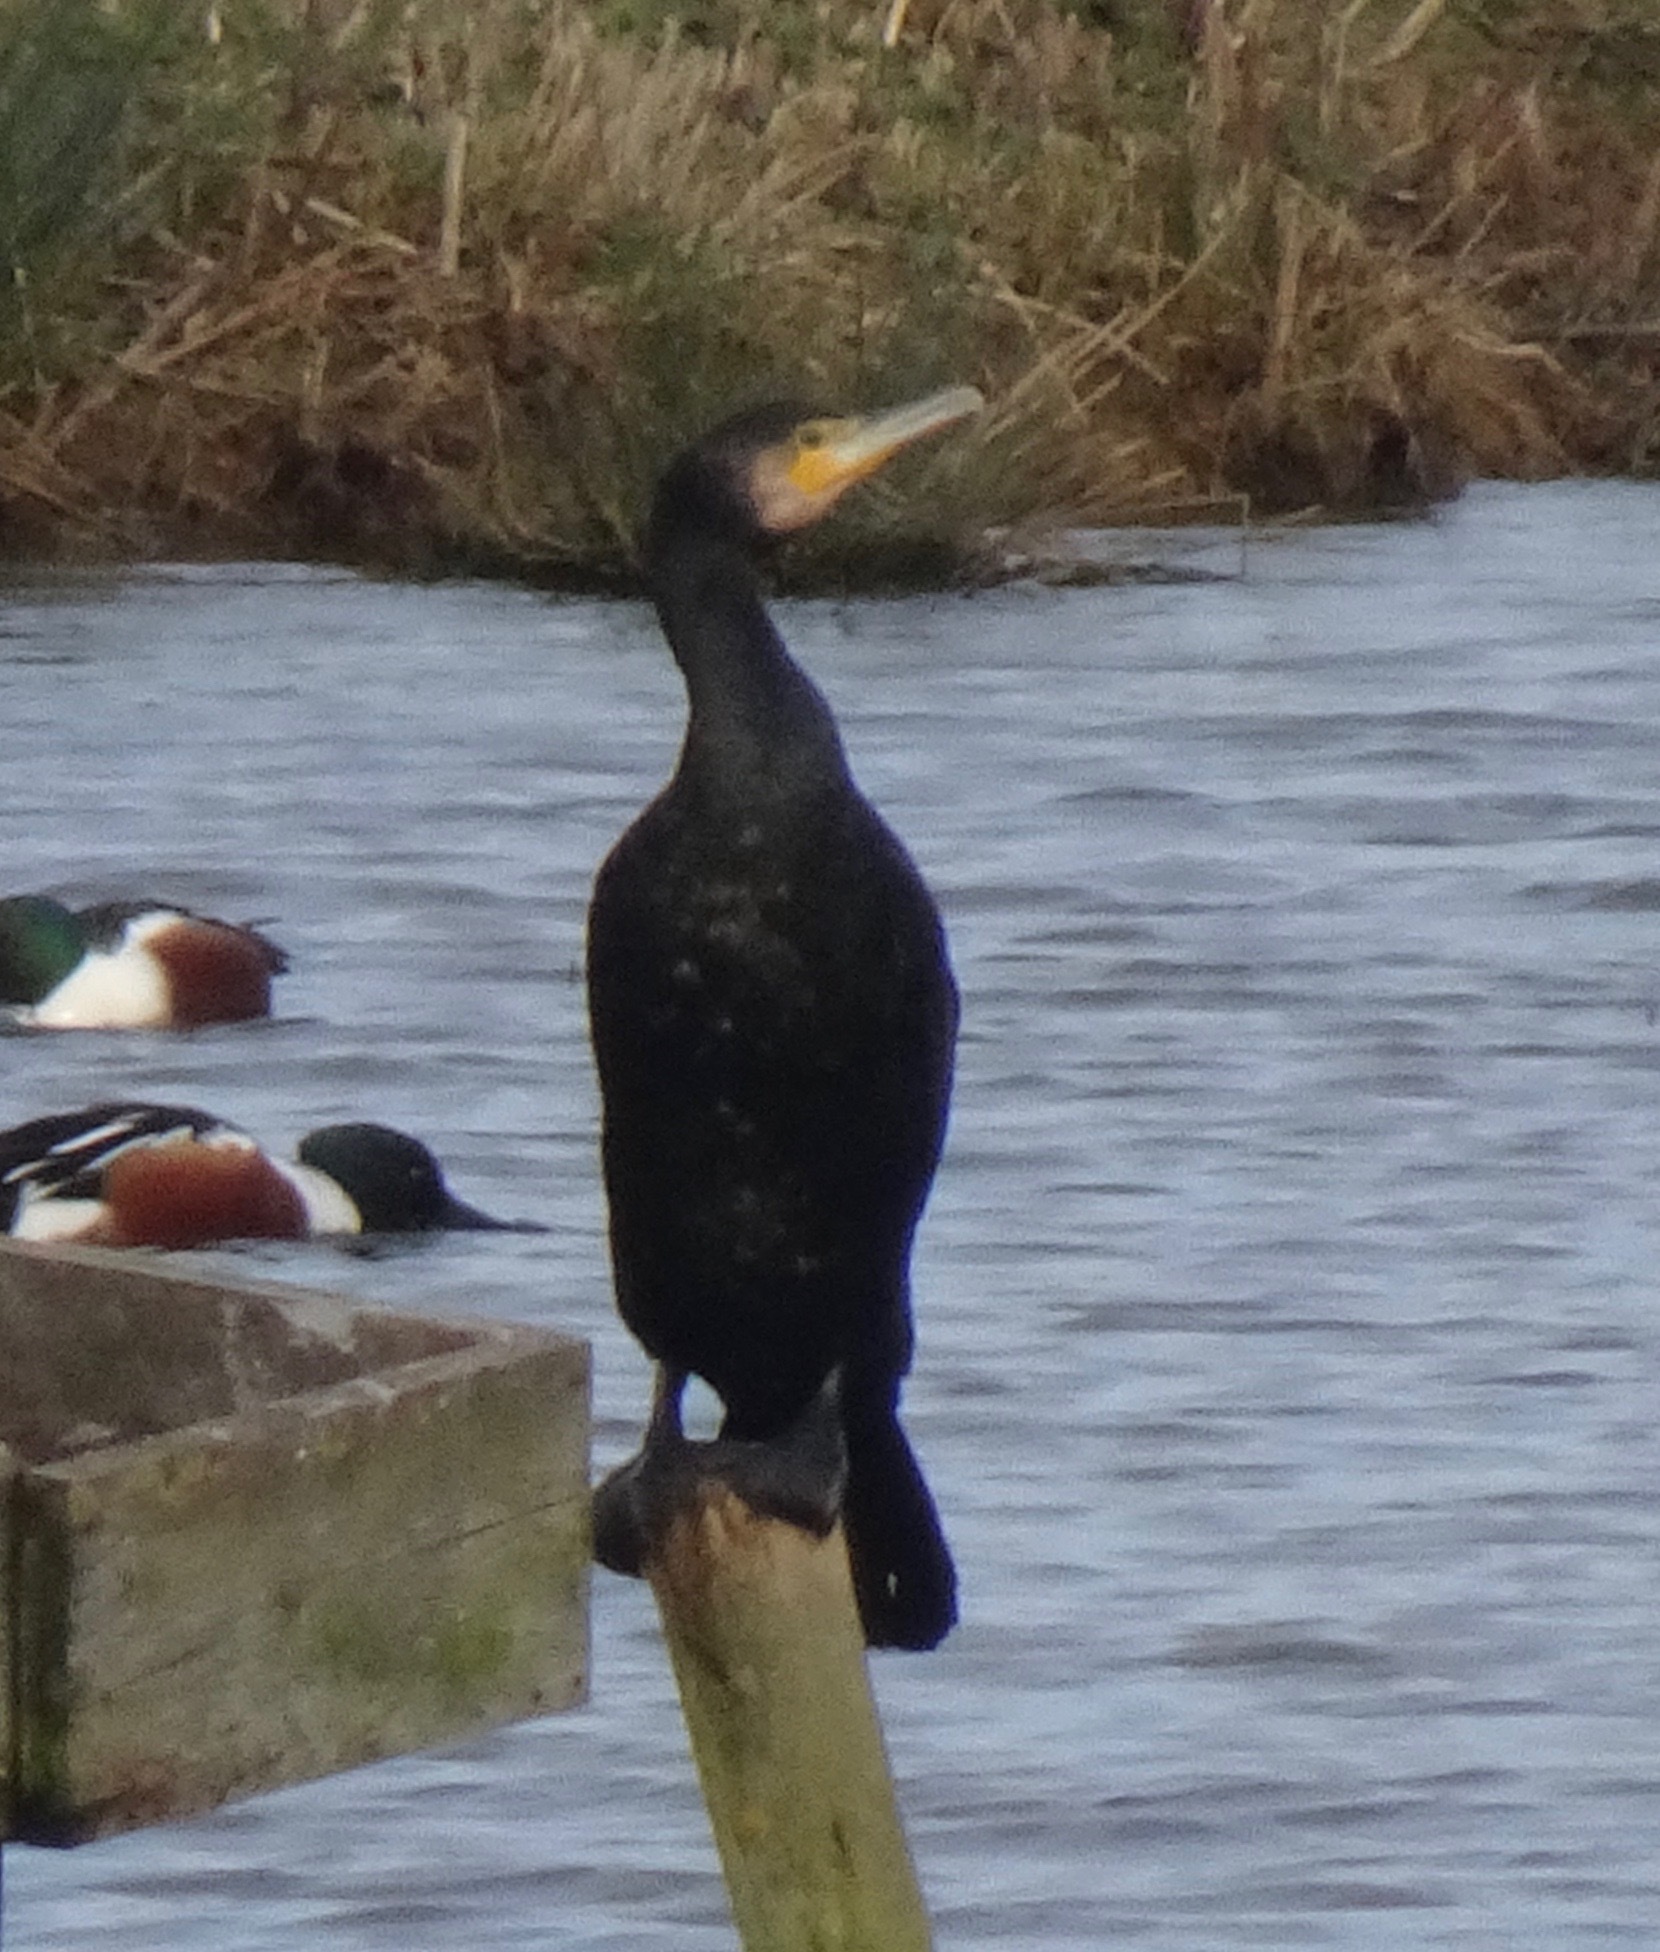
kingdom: Animalia
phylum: Chordata
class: Aves
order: Suliformes
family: Phalacrocoracidae
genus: Phalacrocorax
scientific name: Phalacrocorax carbo
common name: Great cormorant
